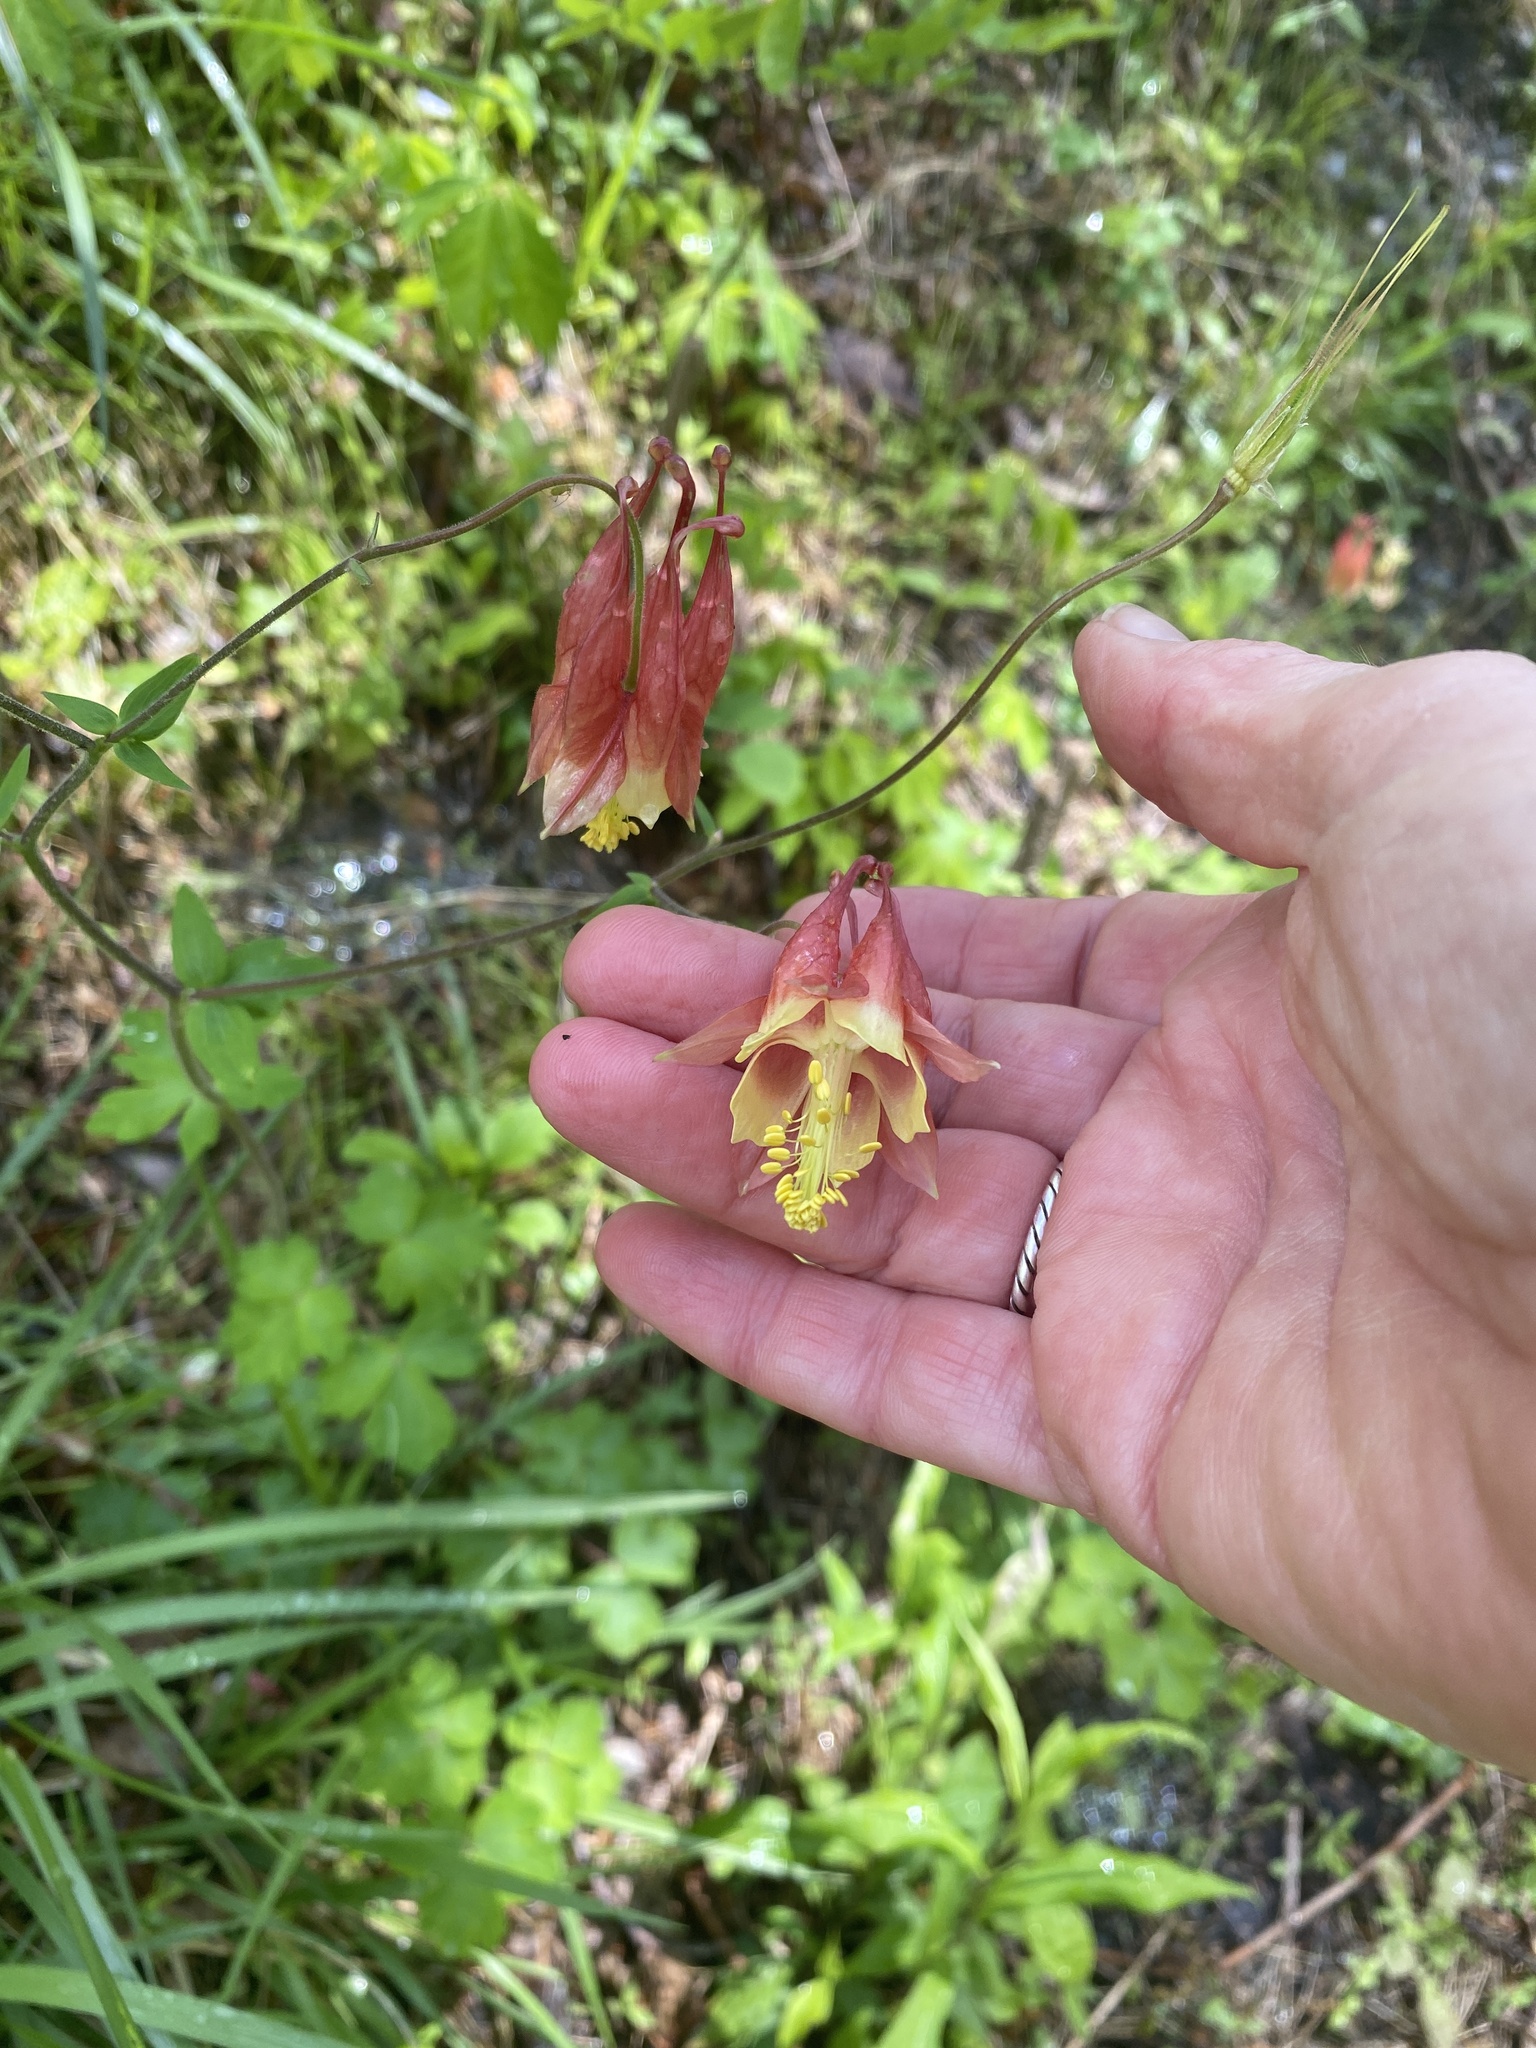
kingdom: Plantae
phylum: Tracheophyta
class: Magnoliopsida
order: Ranunculales
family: Ranunculaceae
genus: Aquilegia
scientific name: Aquilegia canadensis
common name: American columbine
